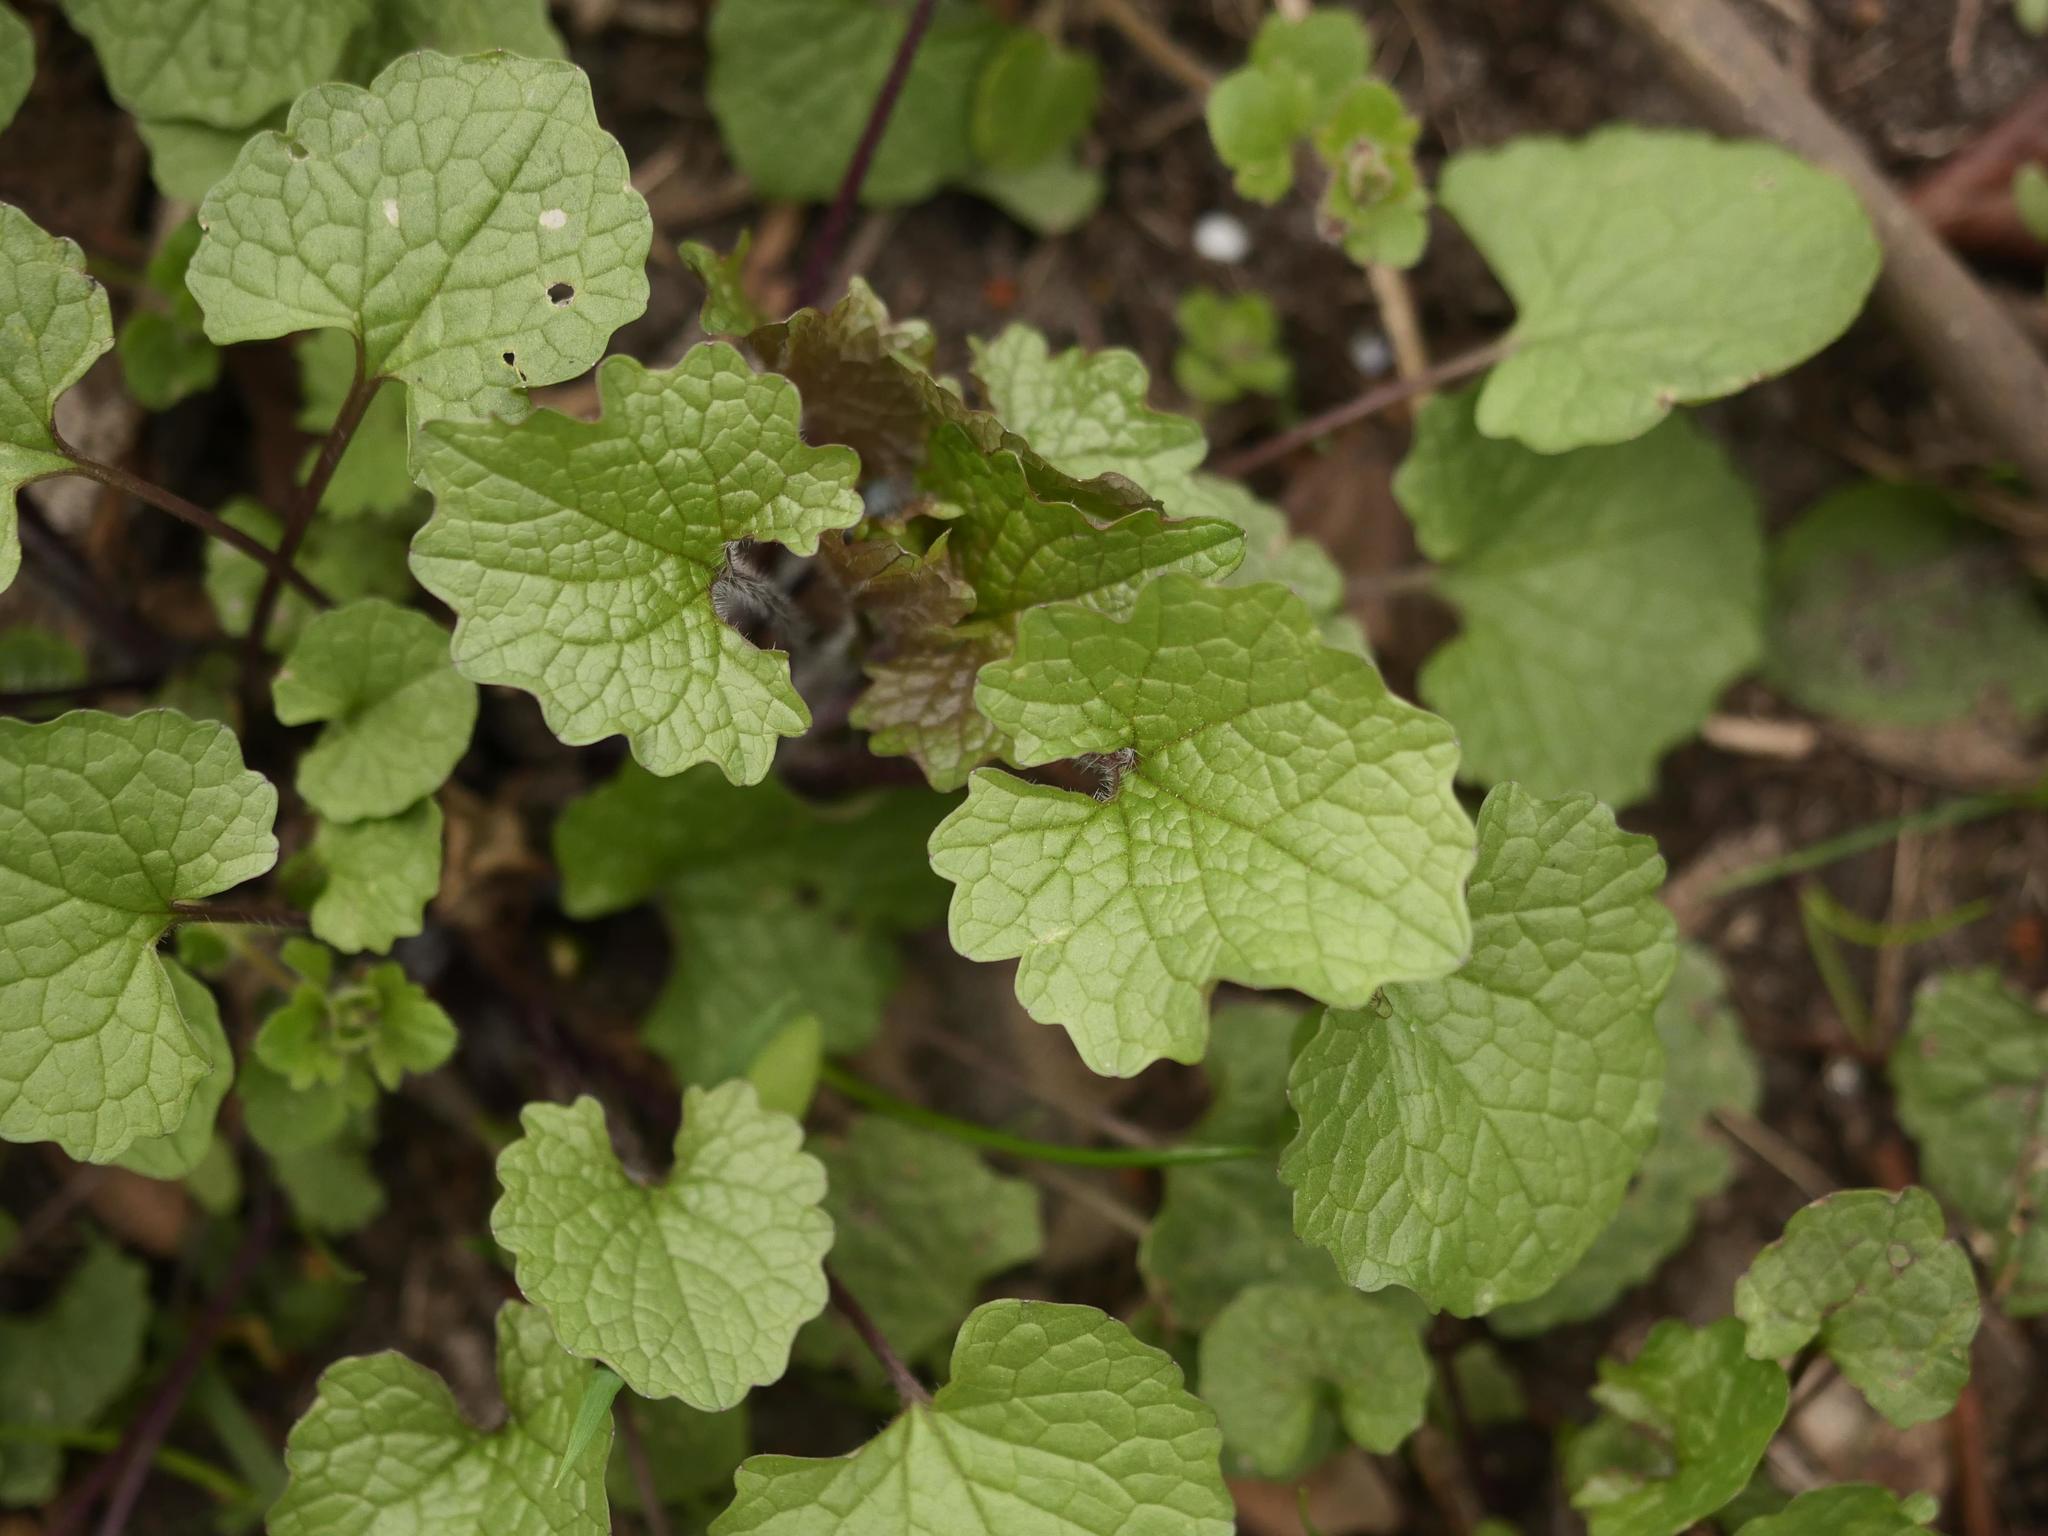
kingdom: Plantae
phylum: Tracheophyta
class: Magnoliopsida
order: Brassicales
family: Brassicaceae
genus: Alliaria
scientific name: Alliaria petiolata
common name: Garlic mustard
